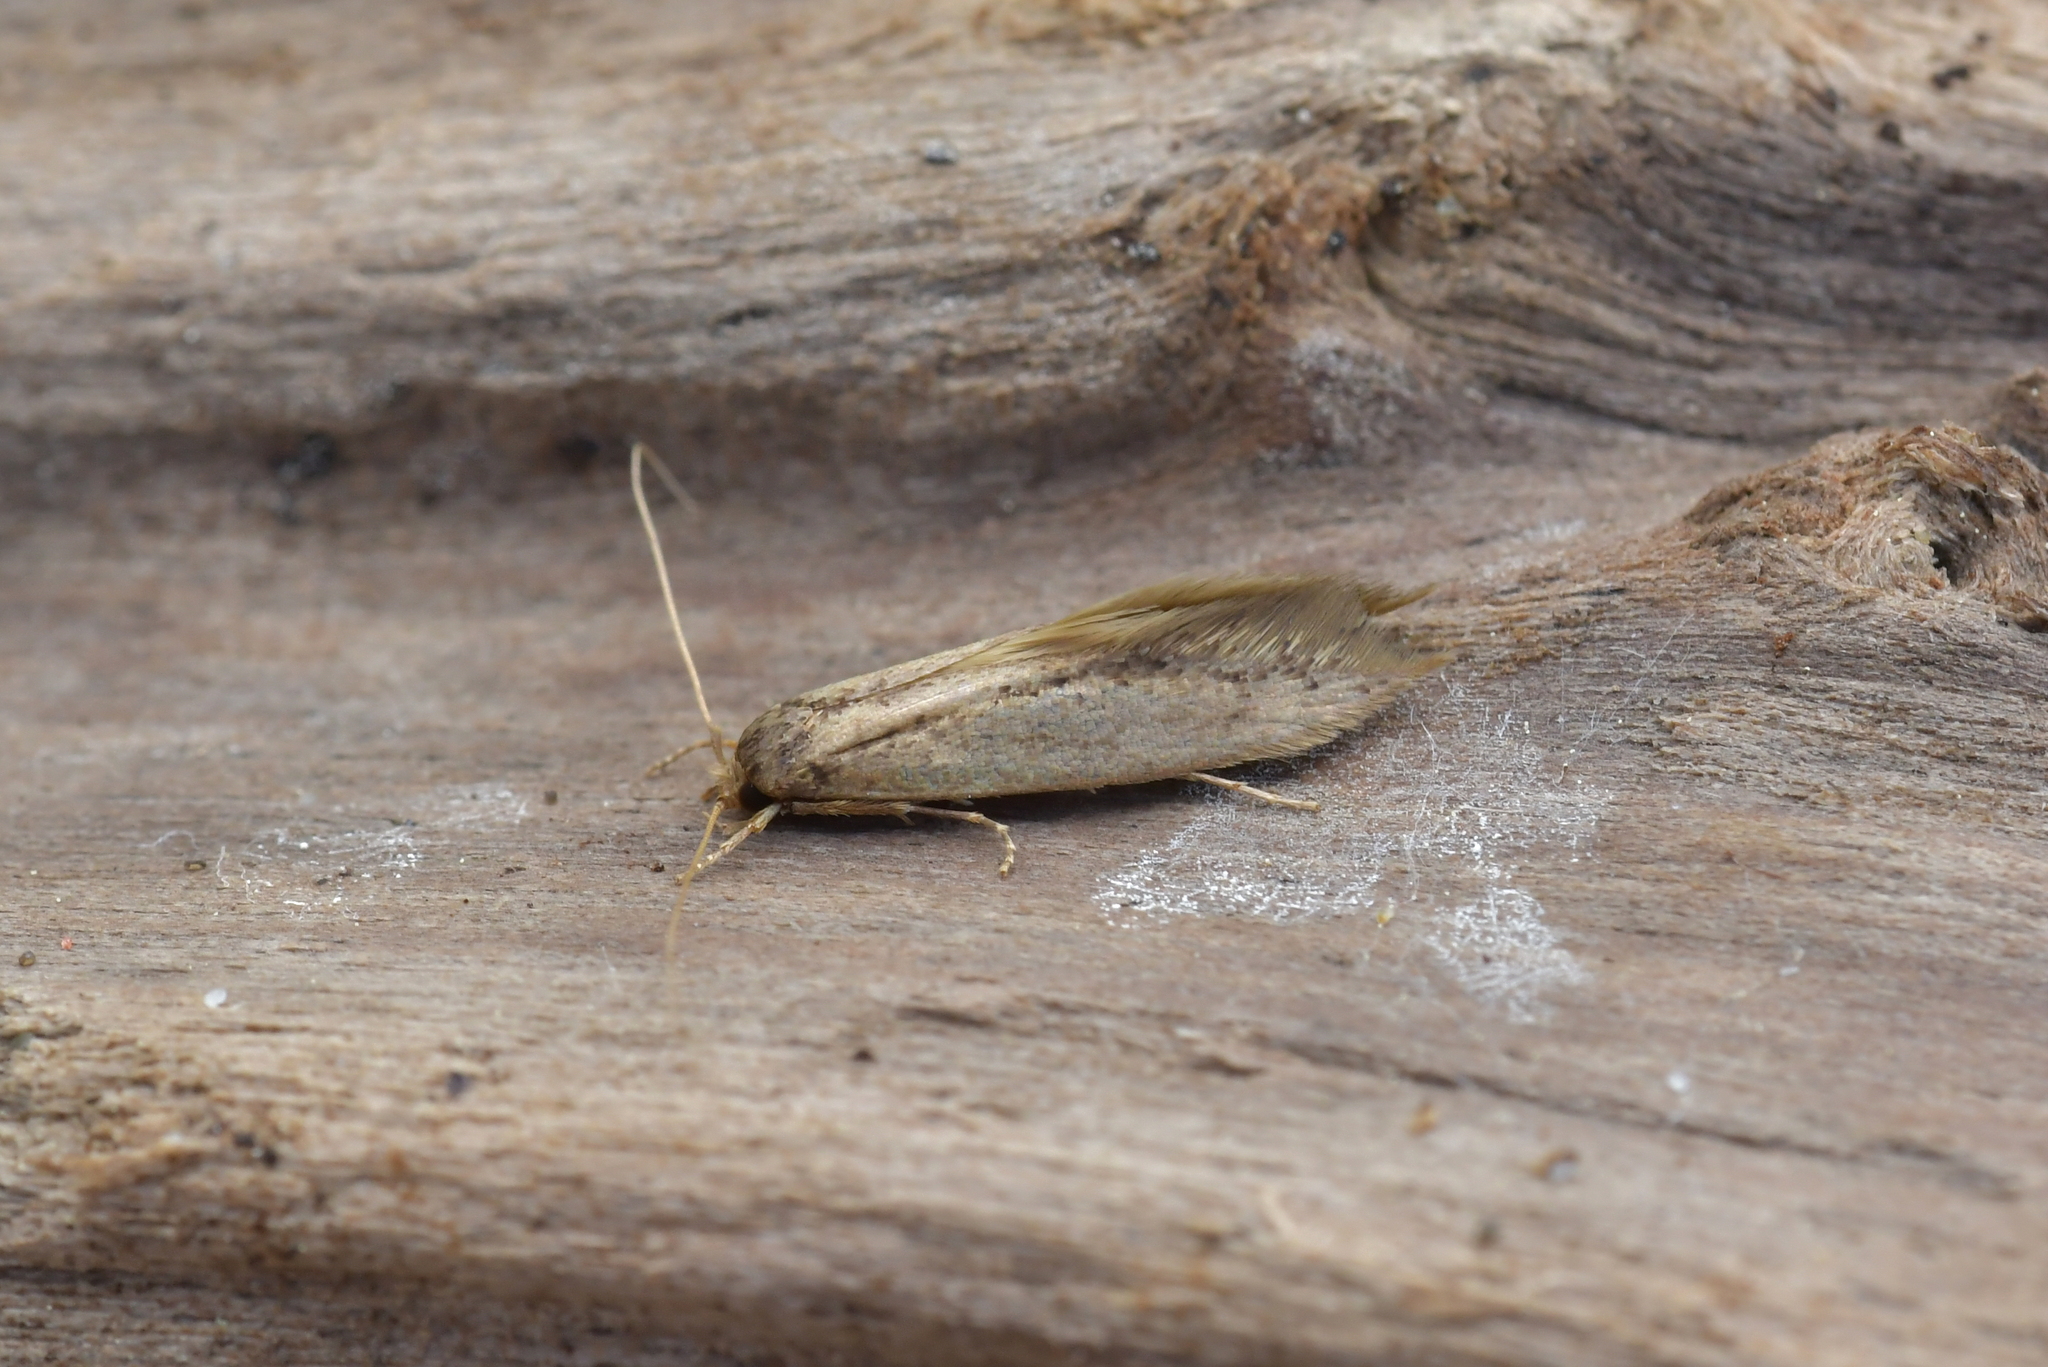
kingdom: Animalia
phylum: Arthropoda
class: Insecta
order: Lepidoptera
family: Tineidae
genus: Opogona
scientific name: Opogona omoscopa
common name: Moth
